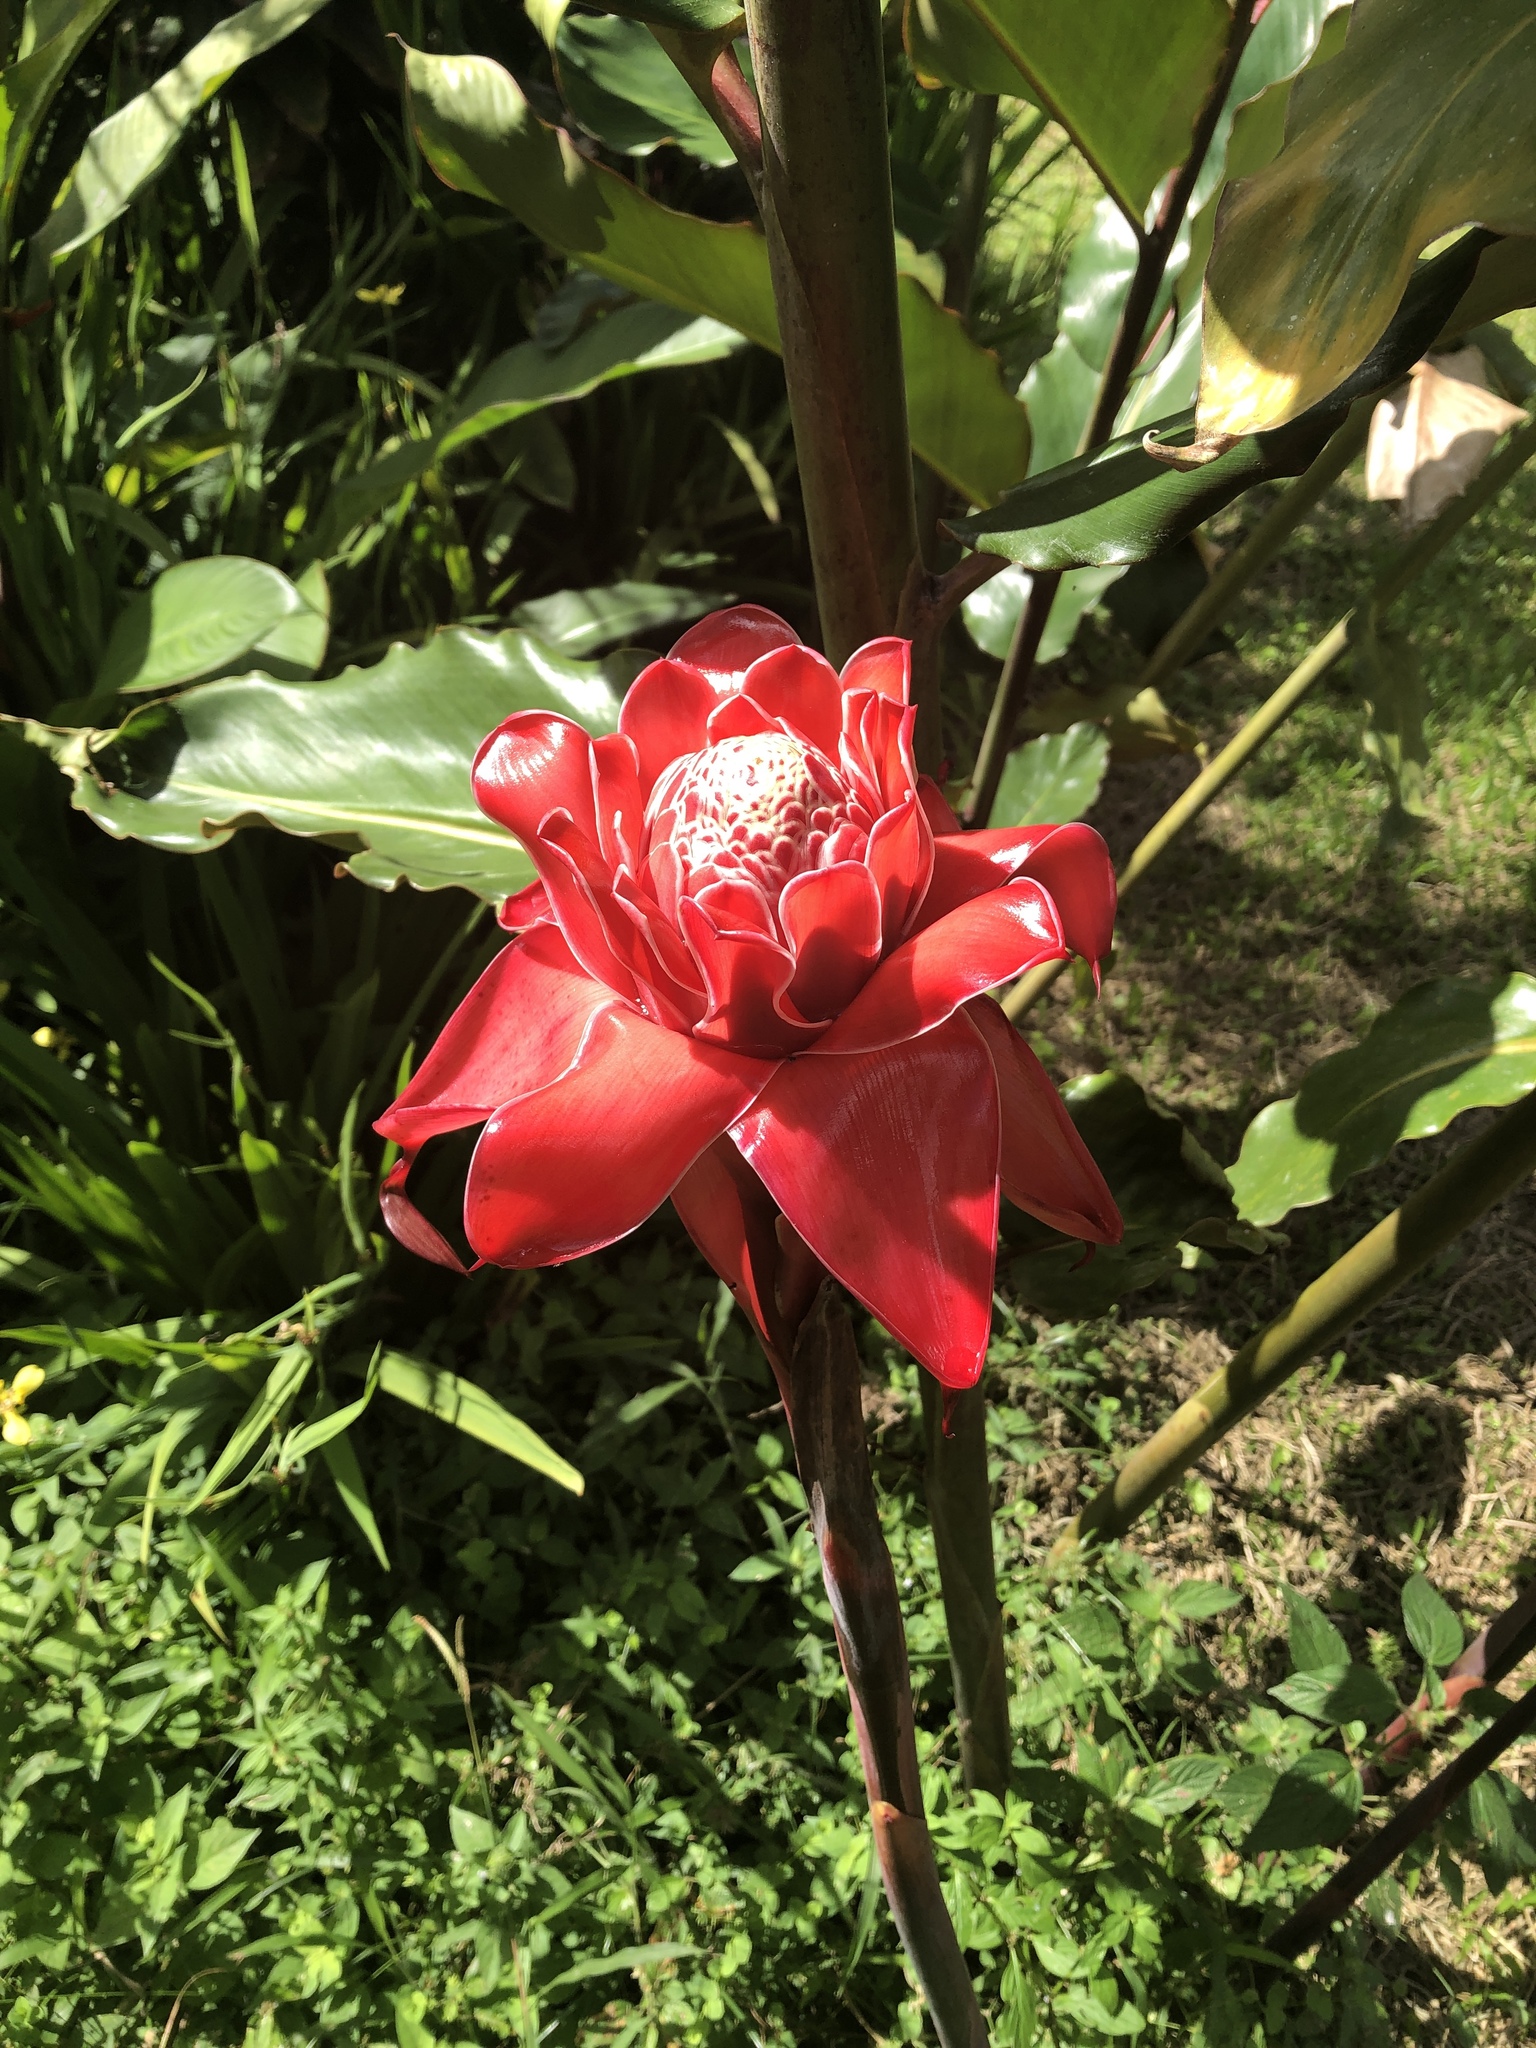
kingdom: Plantae
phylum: Tracheophyta
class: Liliopsida
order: Zingiberales
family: Zingiberaceae
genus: Etlingera
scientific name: Etlingera elatior
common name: Philippine waxflower
